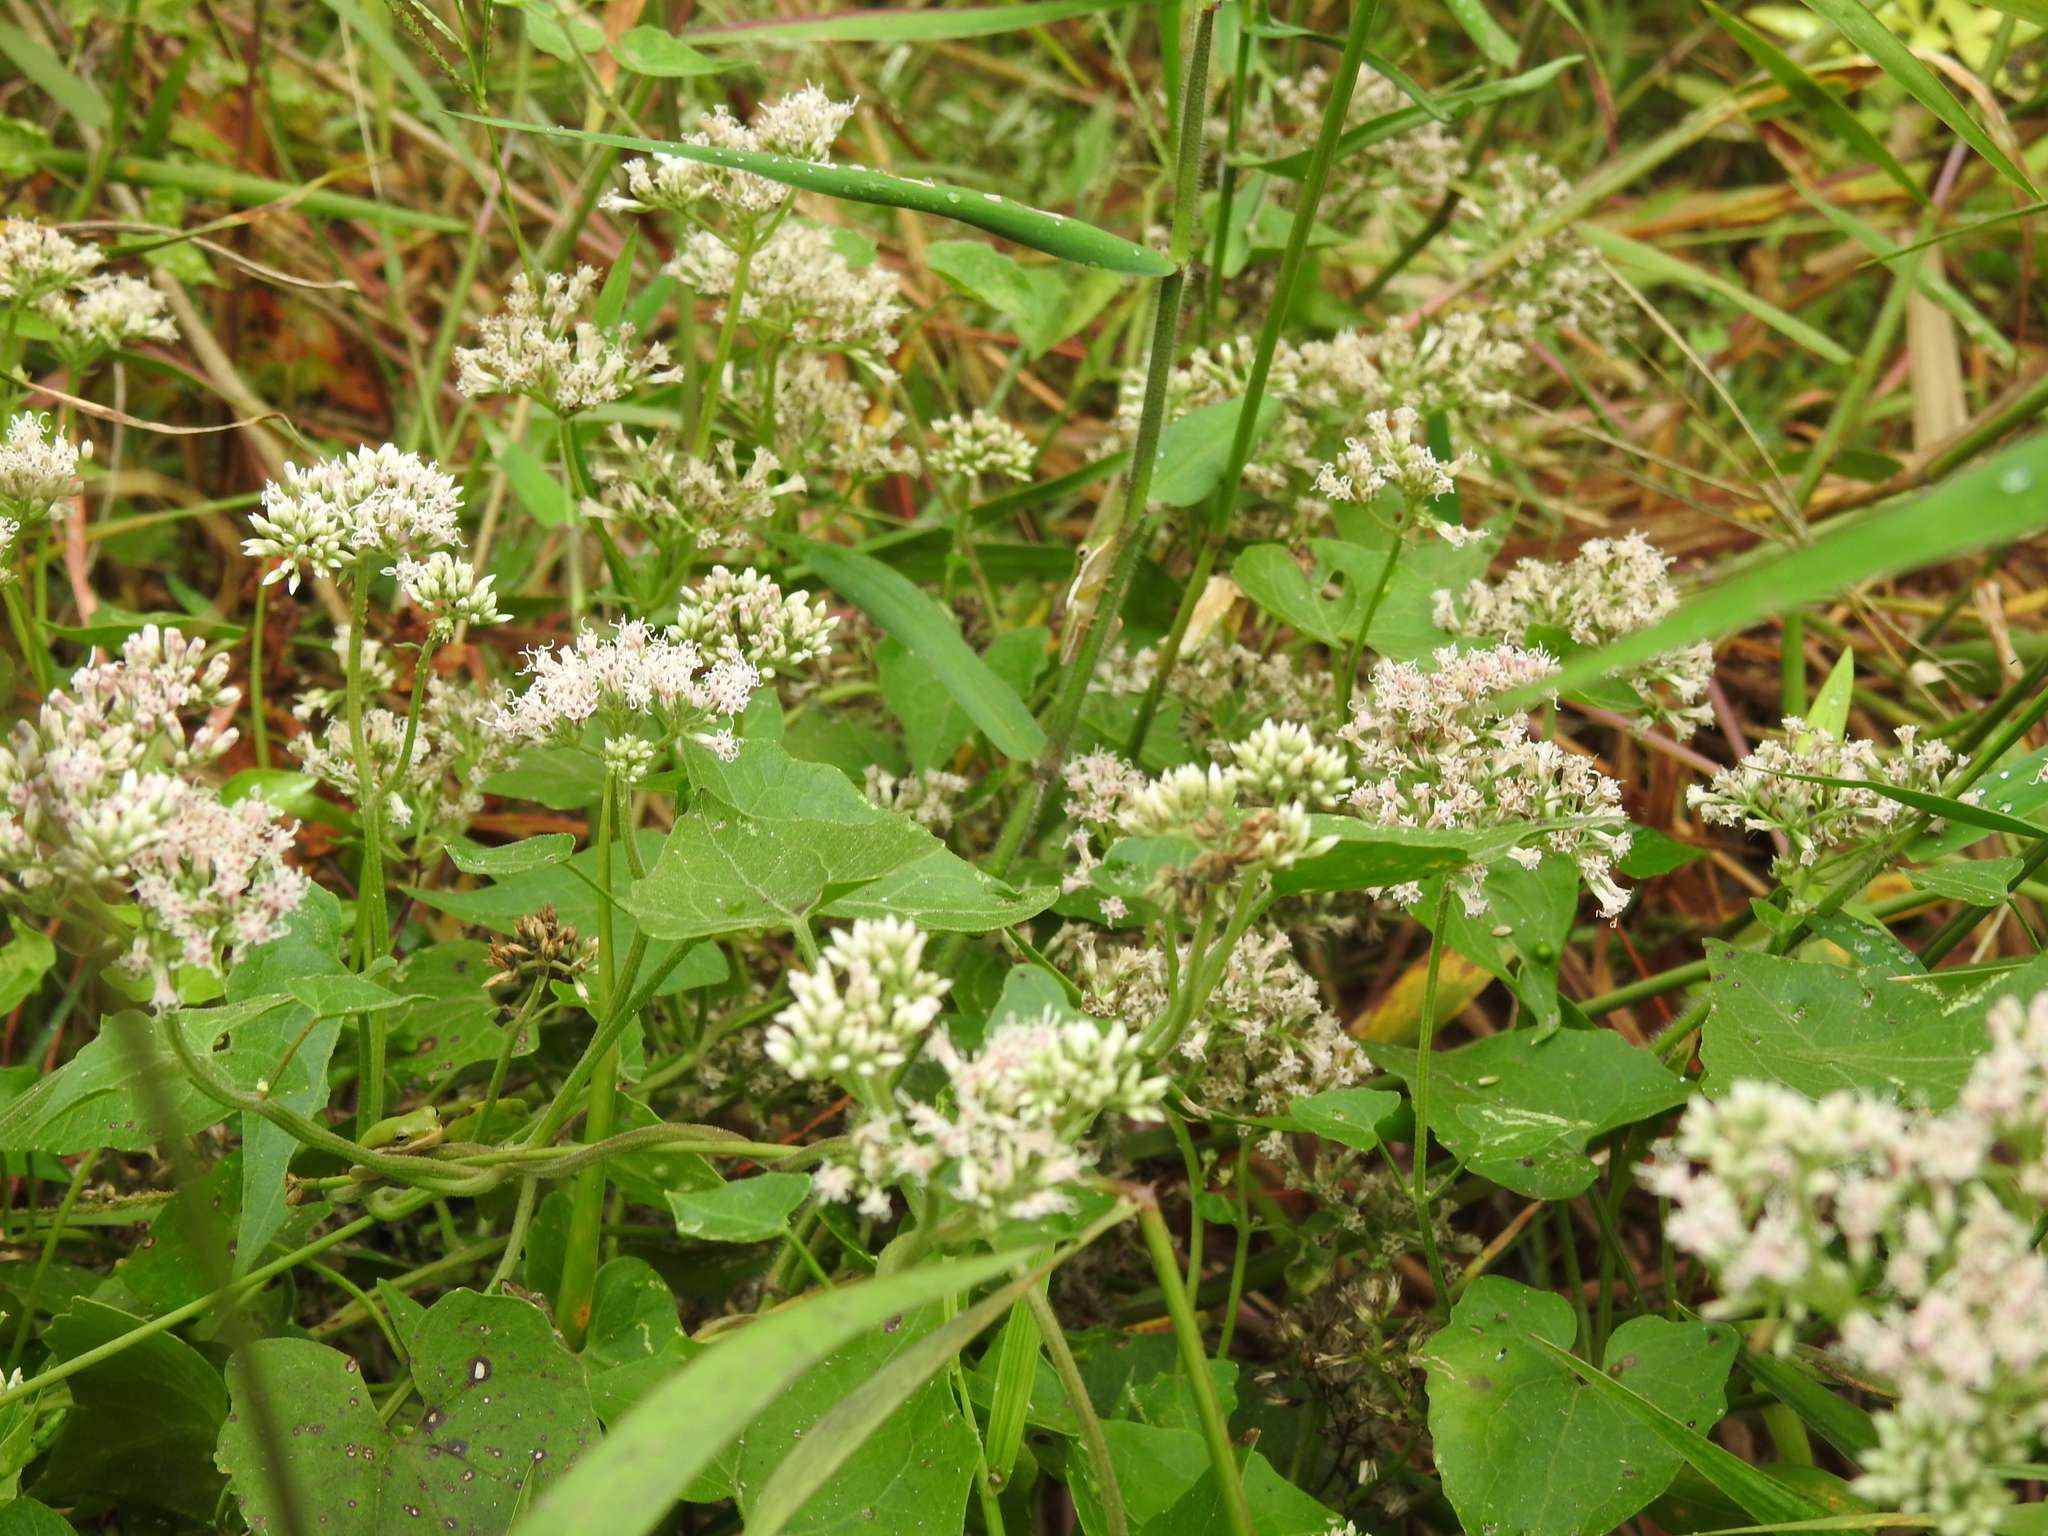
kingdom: Plantae
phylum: Tracheophyta
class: Magnoliopsida
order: Asterales
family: Asteraceae
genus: Mikania
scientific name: Mikania scandens
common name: Climbing hempvine
